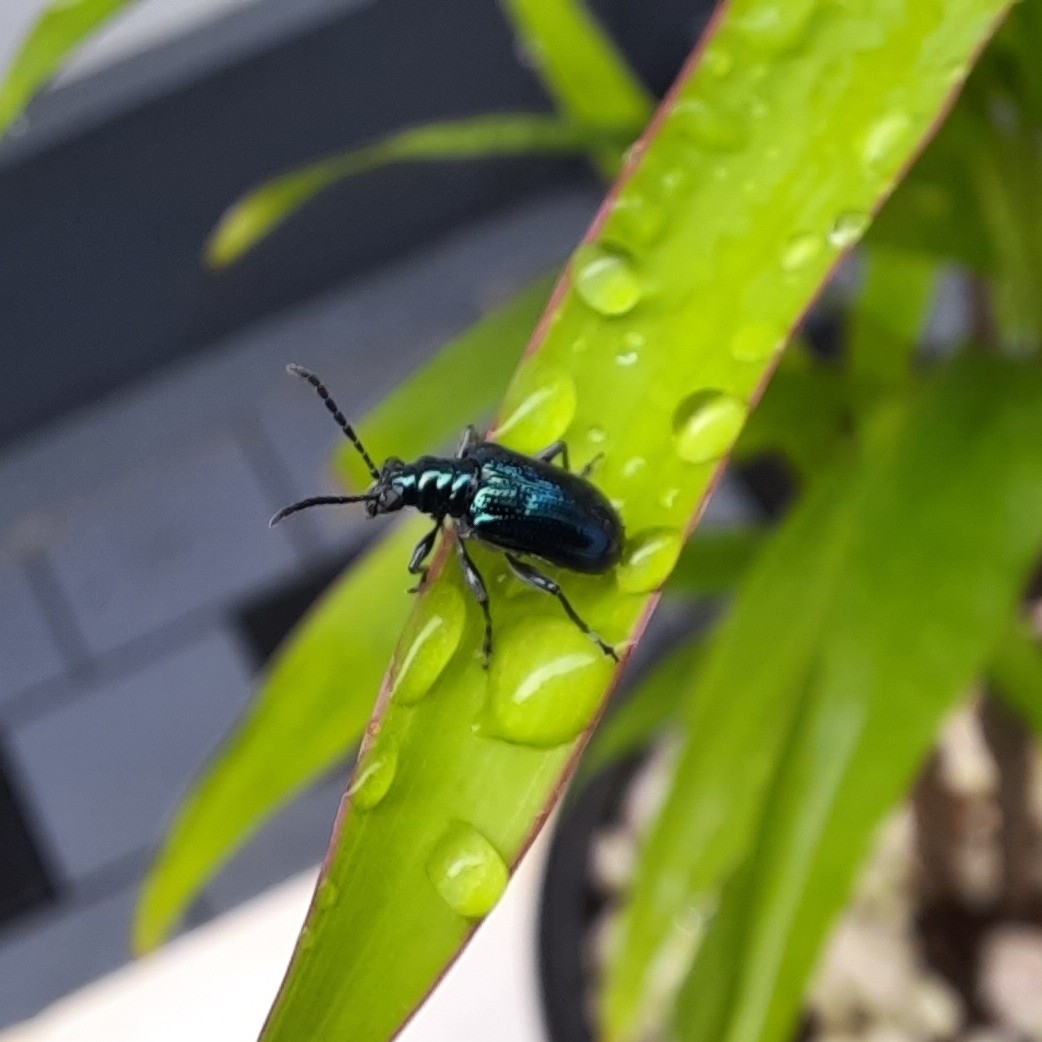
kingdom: Animalia
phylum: Arthropoda
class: Insecta
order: Coleoptera
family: Chrysomelidae
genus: Lema
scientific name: Lema praeusta
